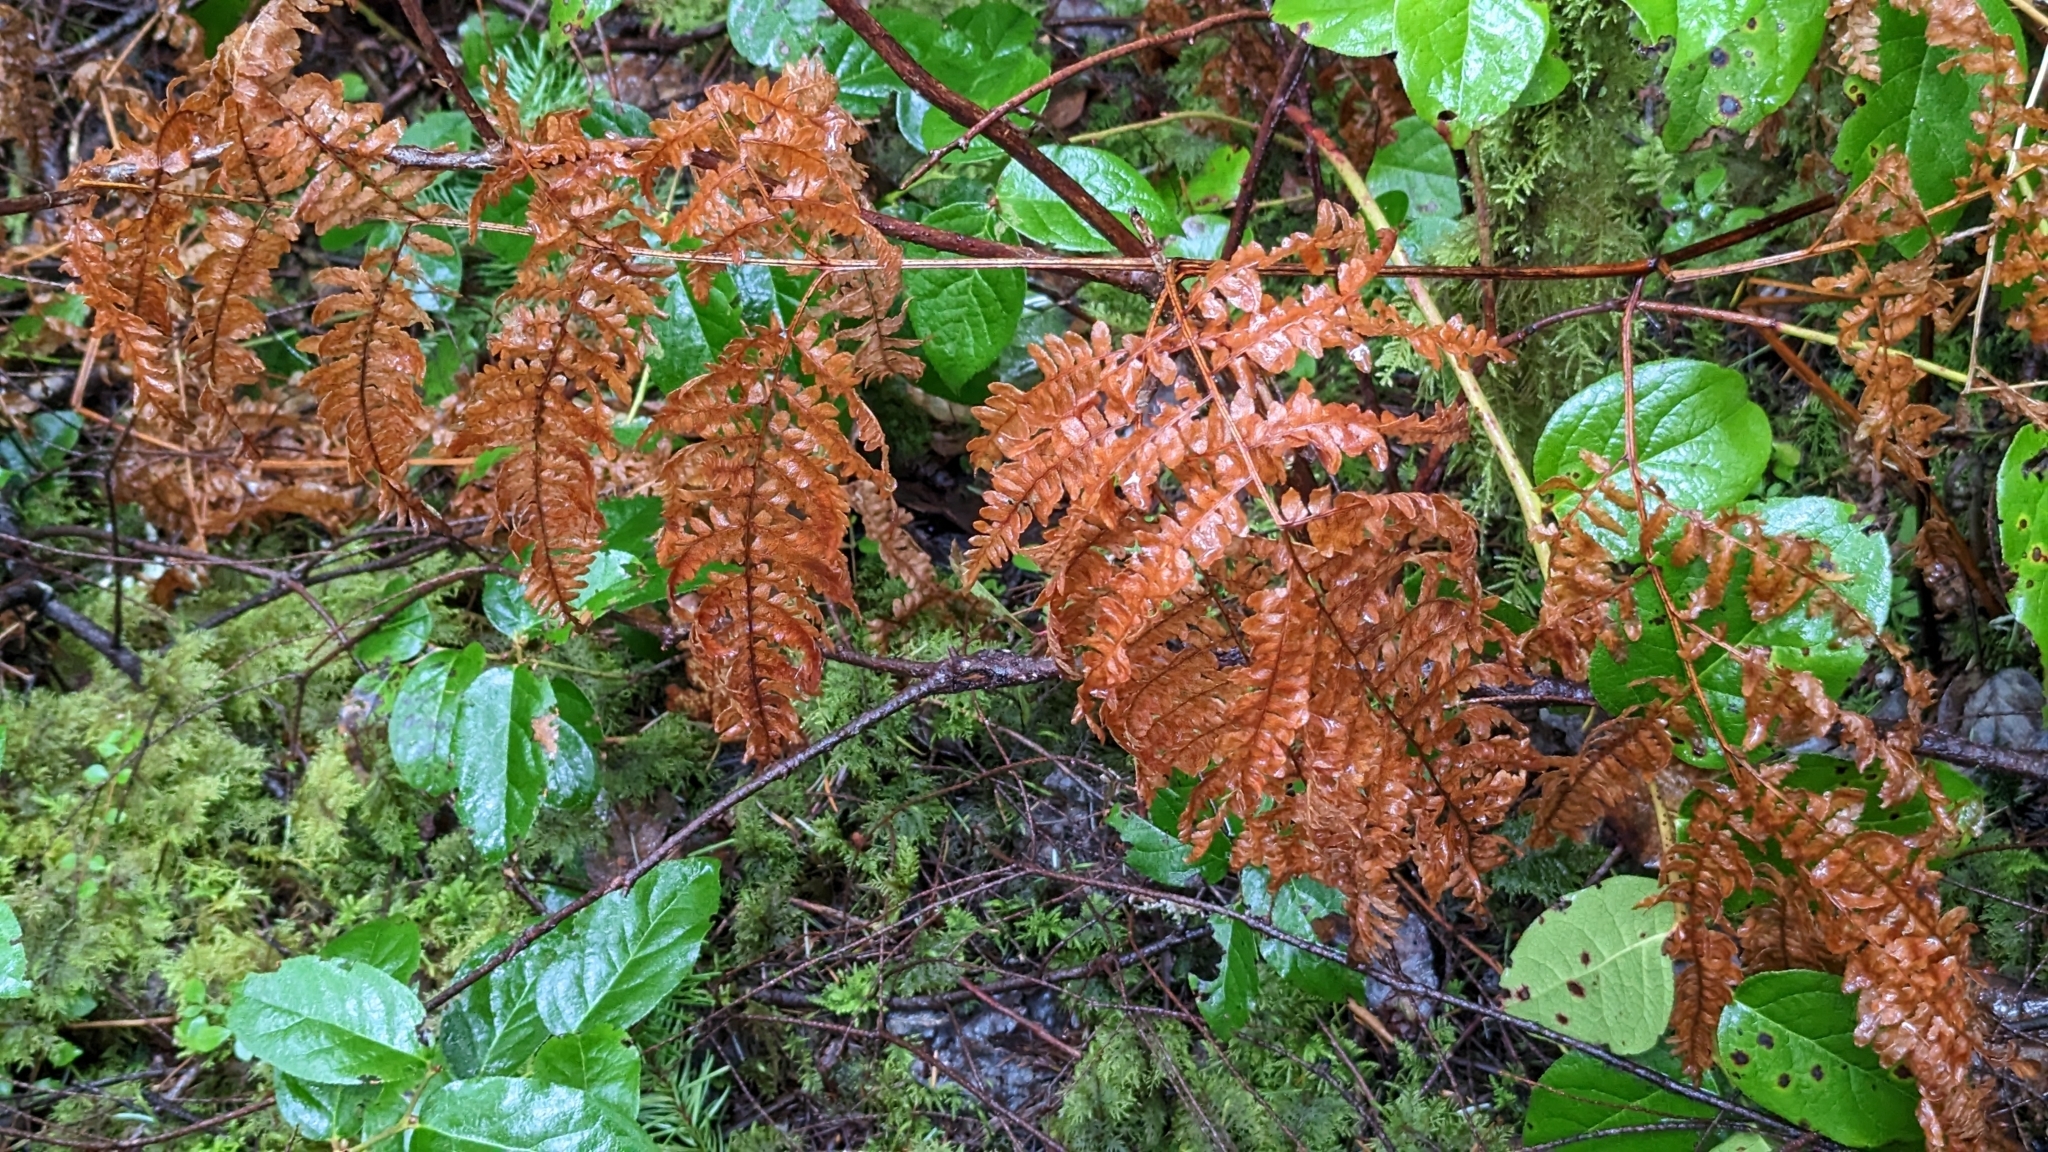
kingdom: Plantae
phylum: Tracheophyta
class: Polypodiopsida
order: Polypodiales
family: Dennstaedtiaceae
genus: Pteridium
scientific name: Pteridium aquilinum
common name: Bracken
